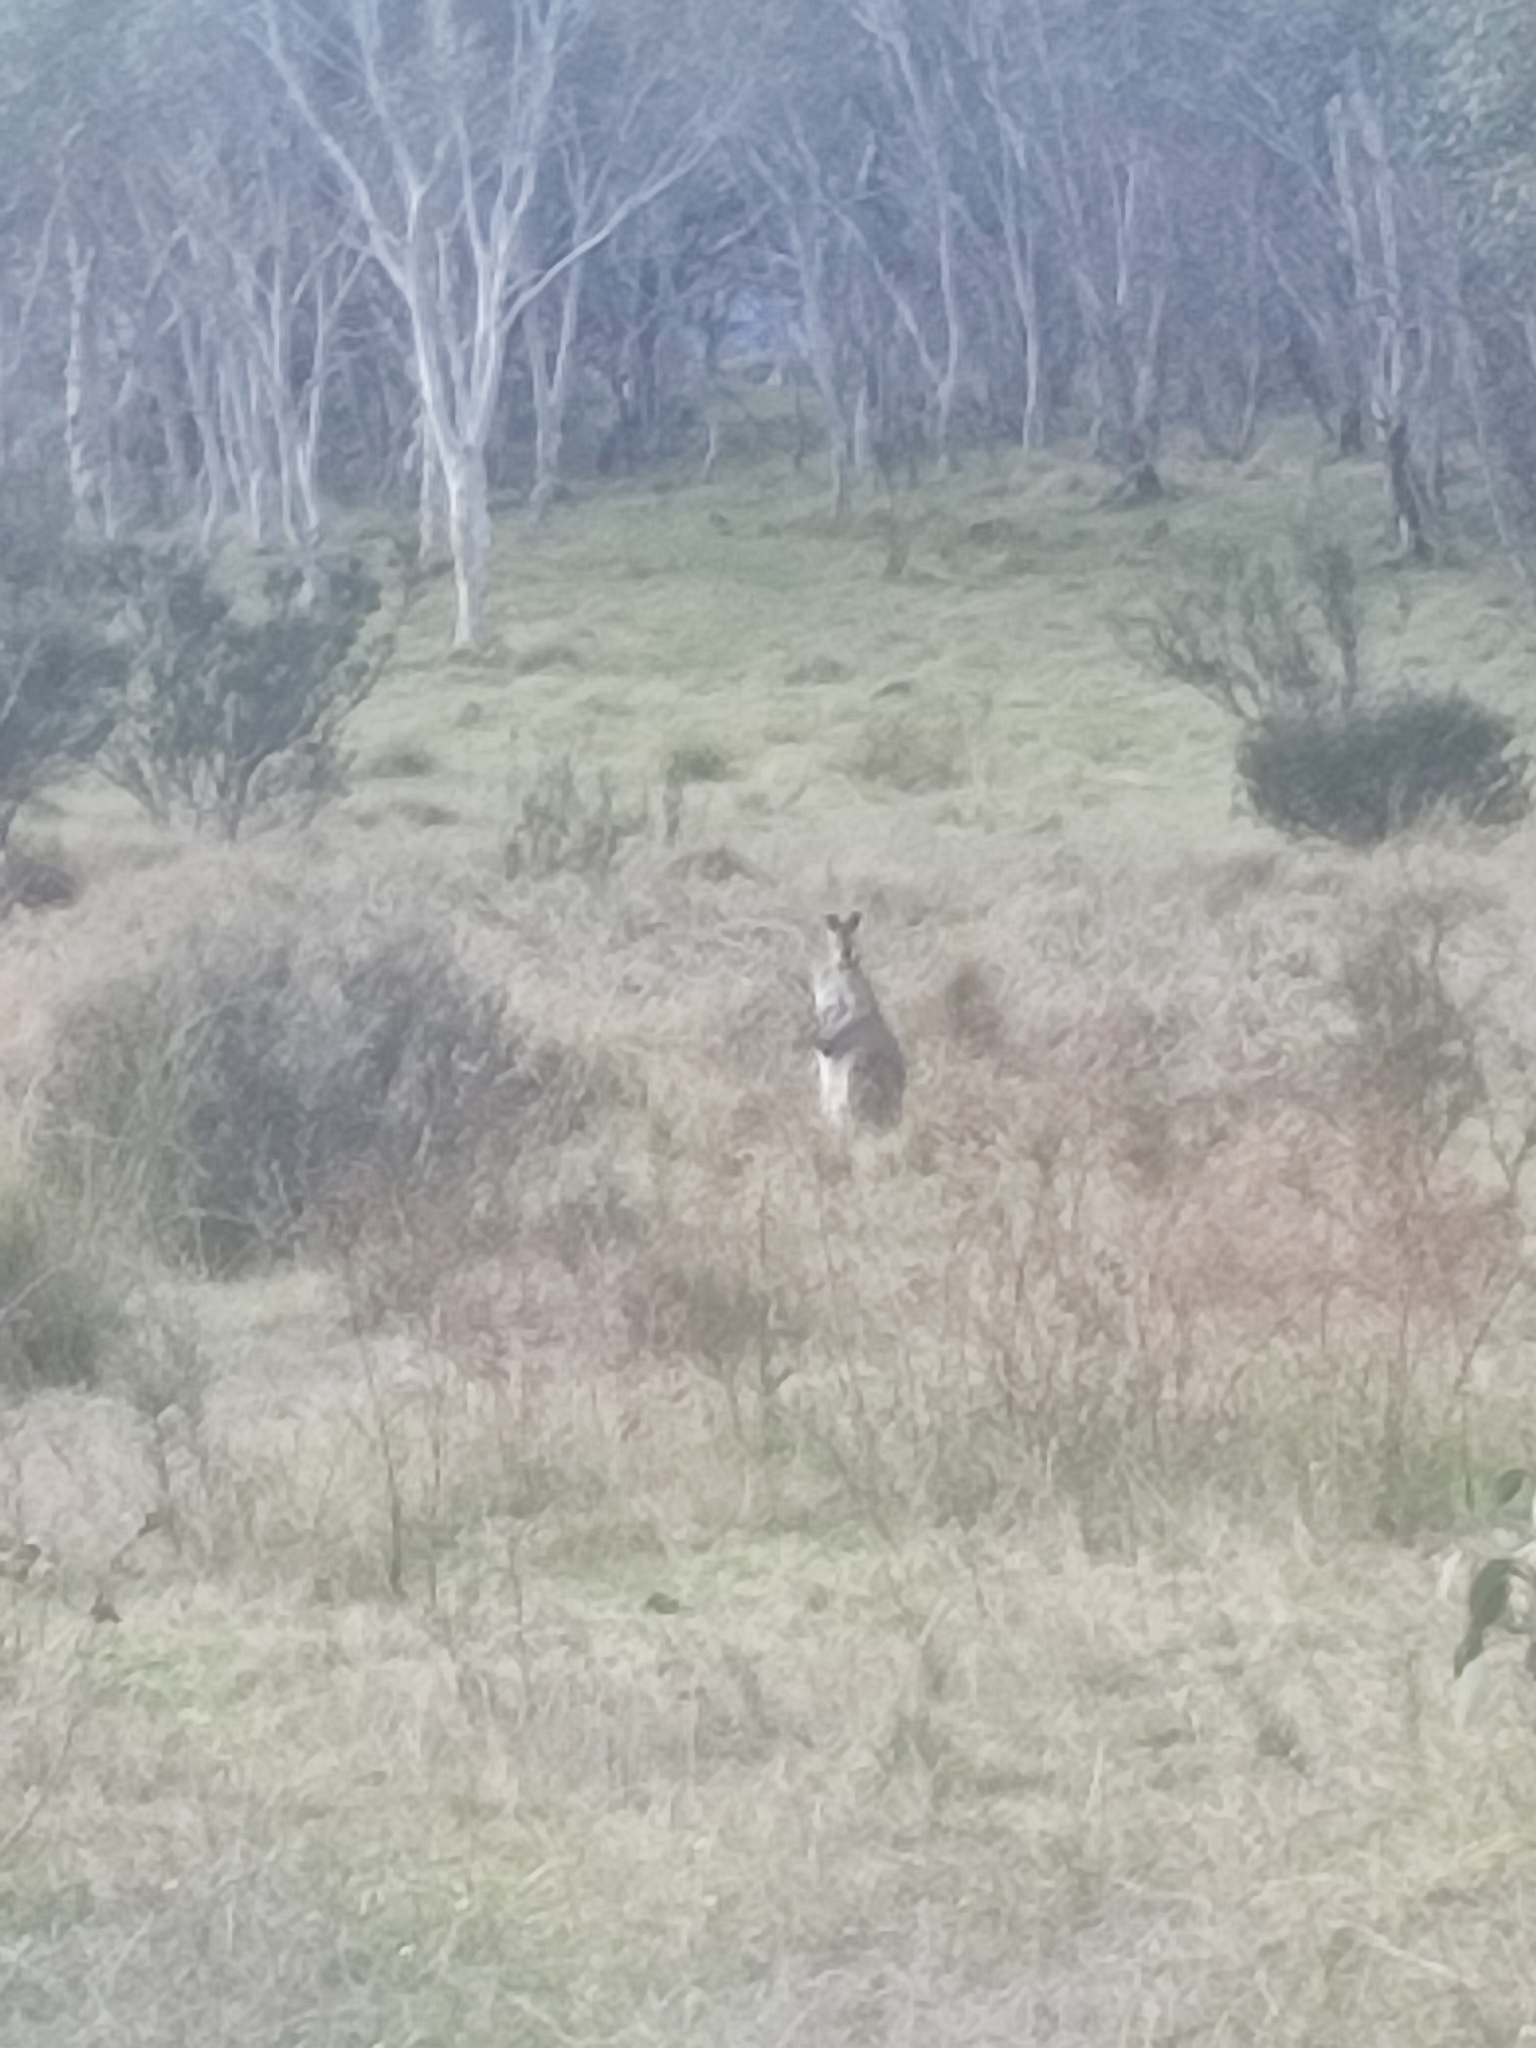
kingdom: Animalia
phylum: Chordata
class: Mammalia
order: Diprotodontia
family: Macropodidae
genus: Macropus
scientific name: Macropus giganteus
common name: Eastern grey kangaroo
